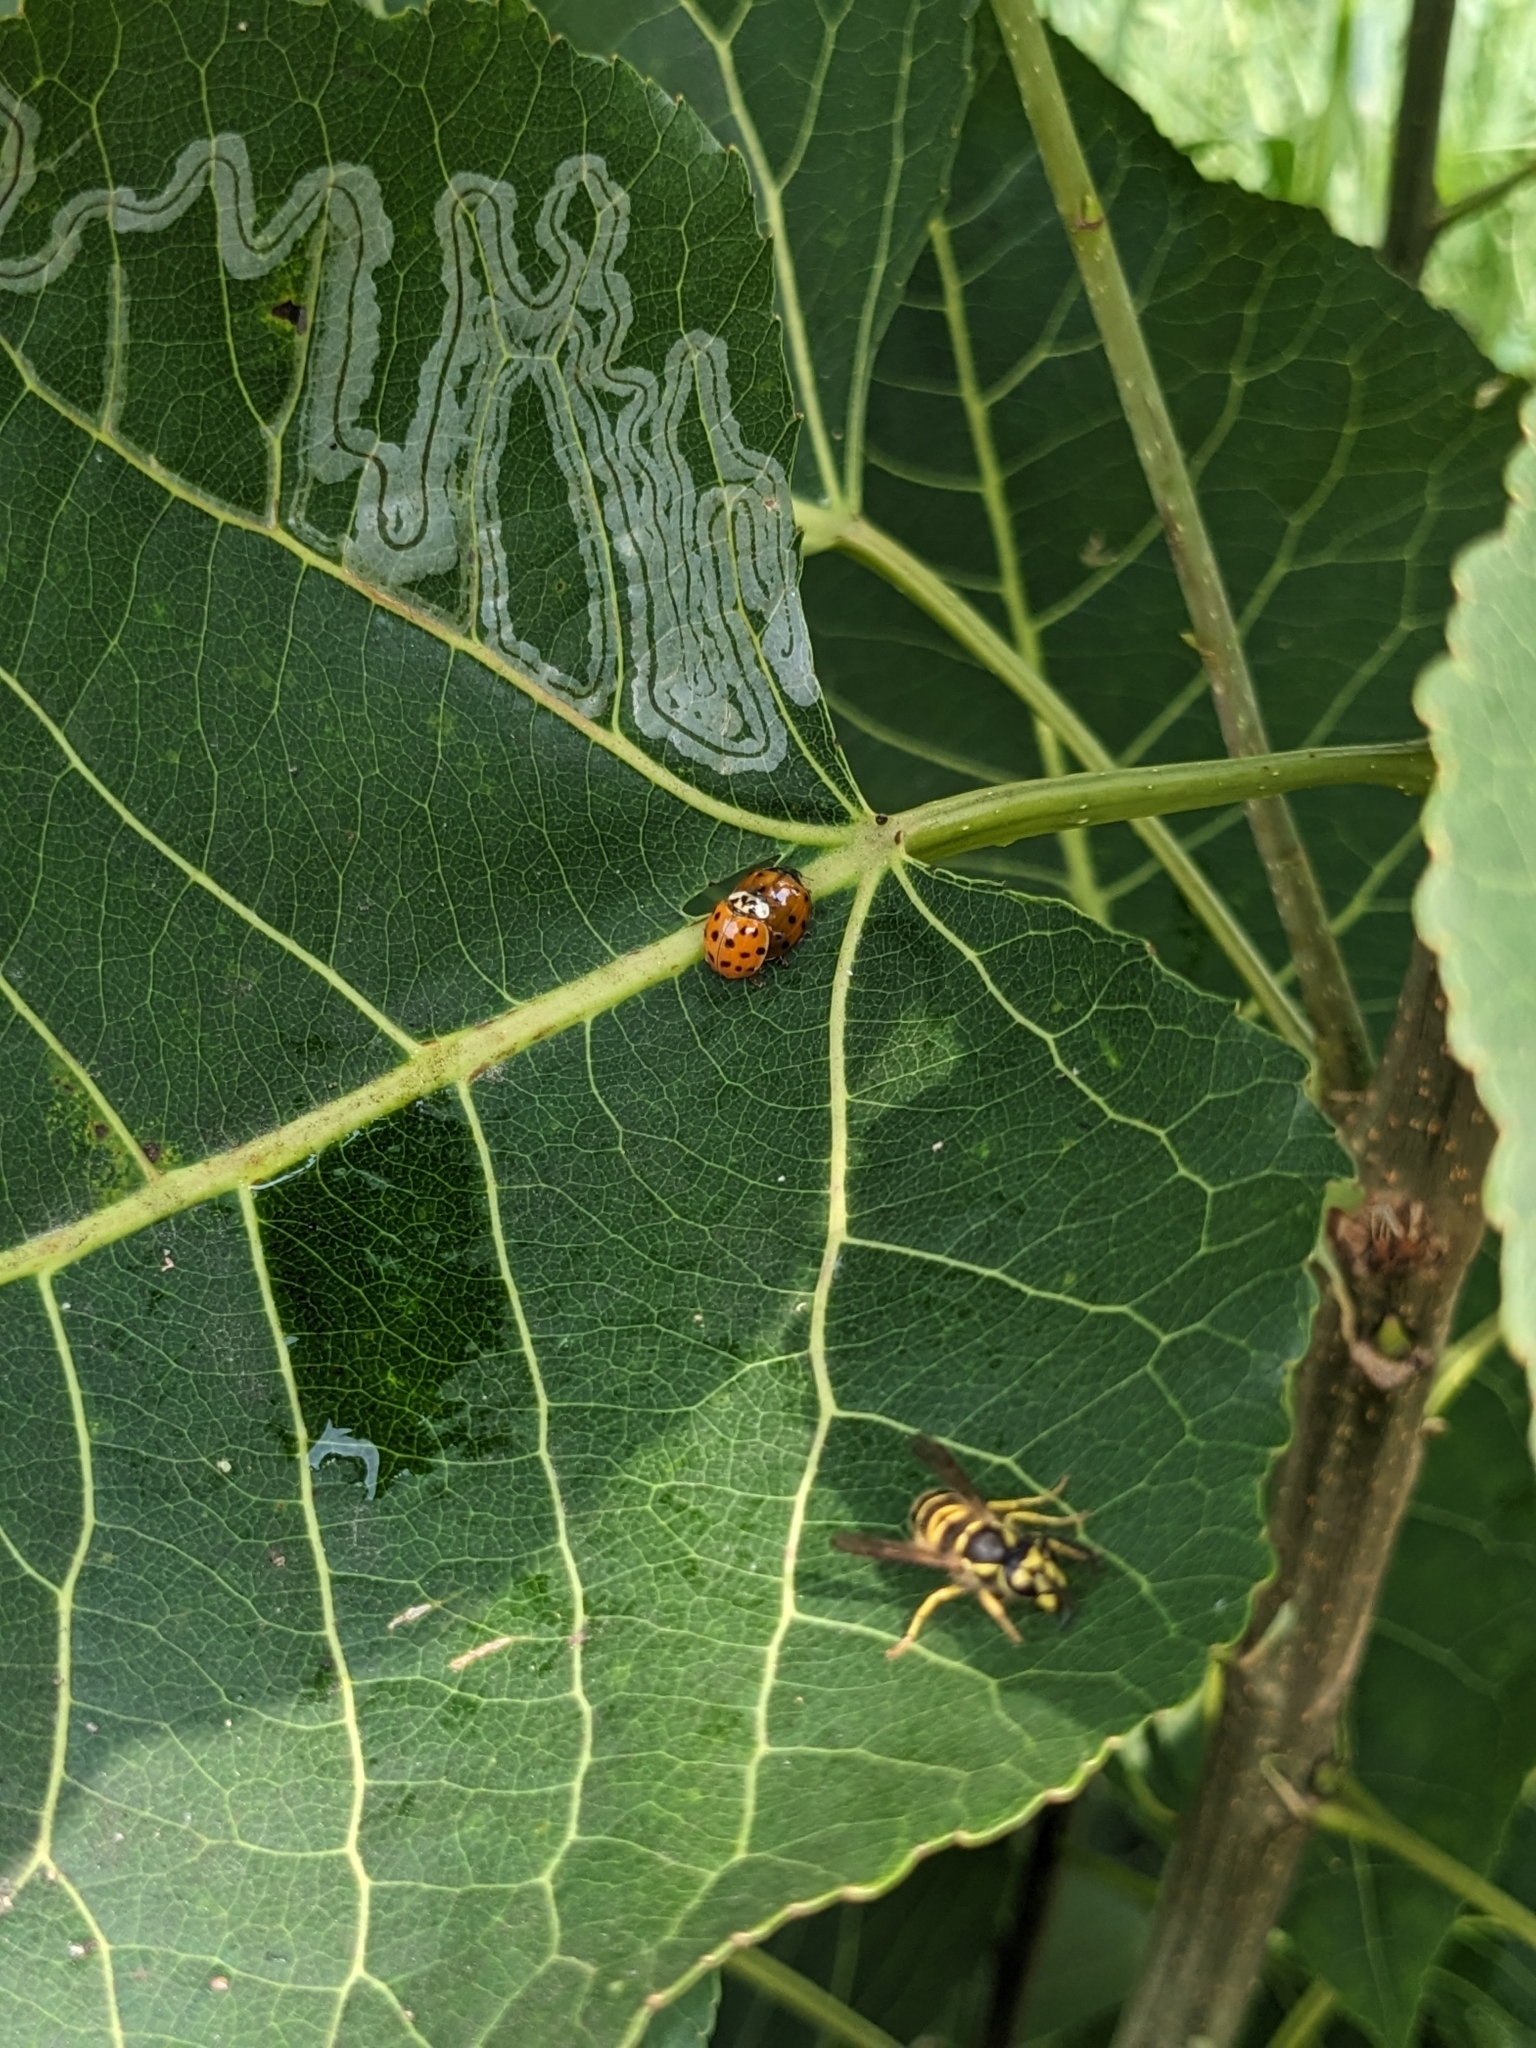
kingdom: Animalia
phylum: Arthropoda
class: Insecta
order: Coleoptera
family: Coccinellidae
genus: Harmonia
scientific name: Harmonia axyridis
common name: Harlequin ladybird
